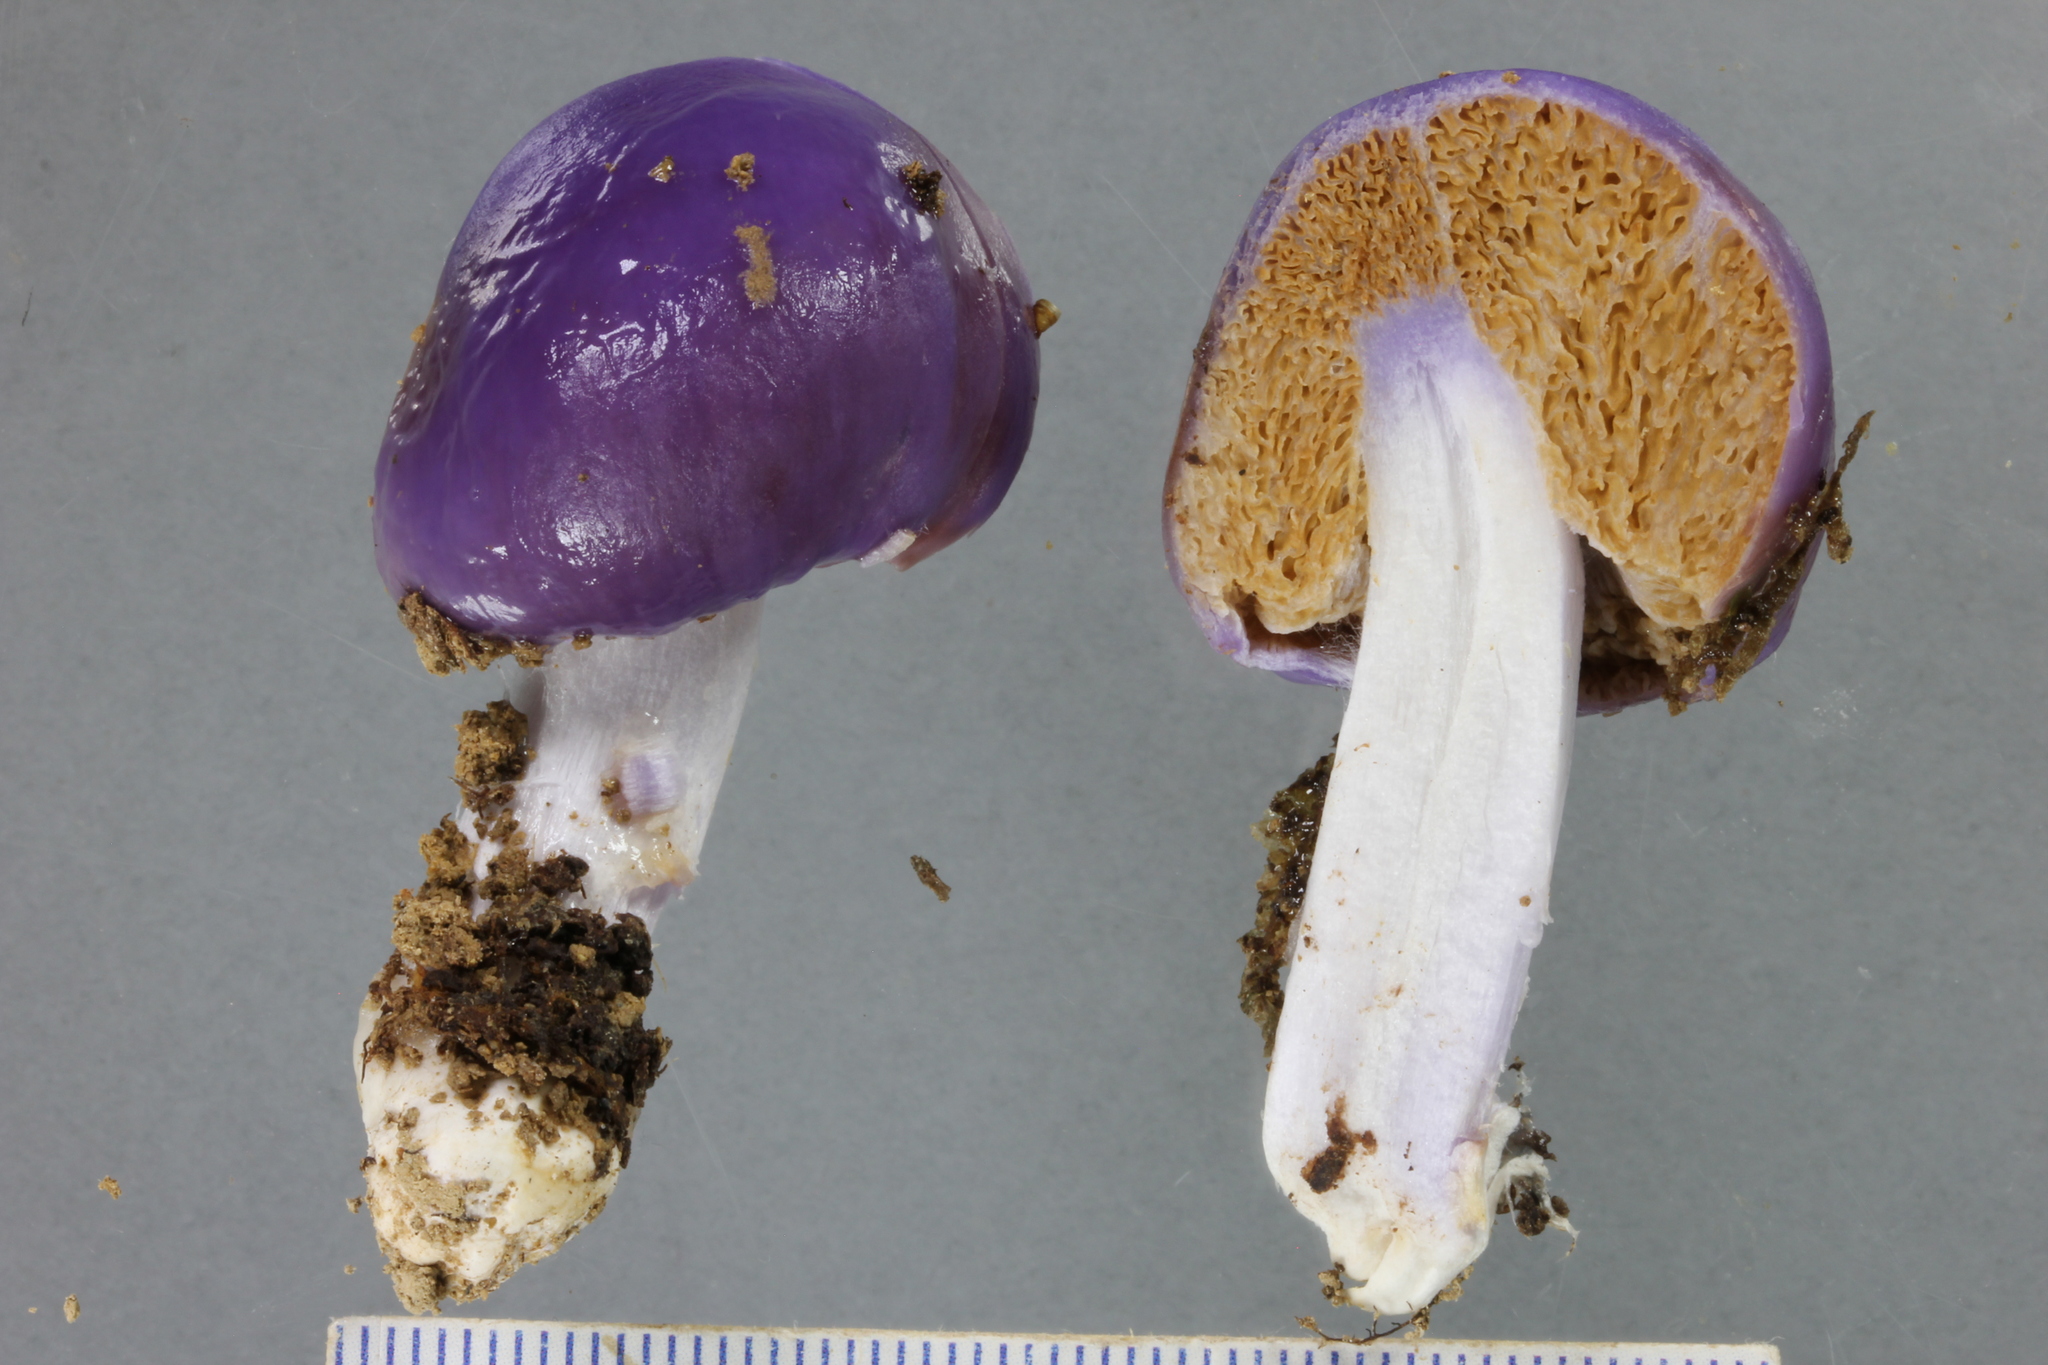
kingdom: Fungi
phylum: Basidiomycota
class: Agaricomycetes
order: Agaricales
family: Cortinariaceae
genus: Cortinarius
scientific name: Cortinarius purpureocapitatus
